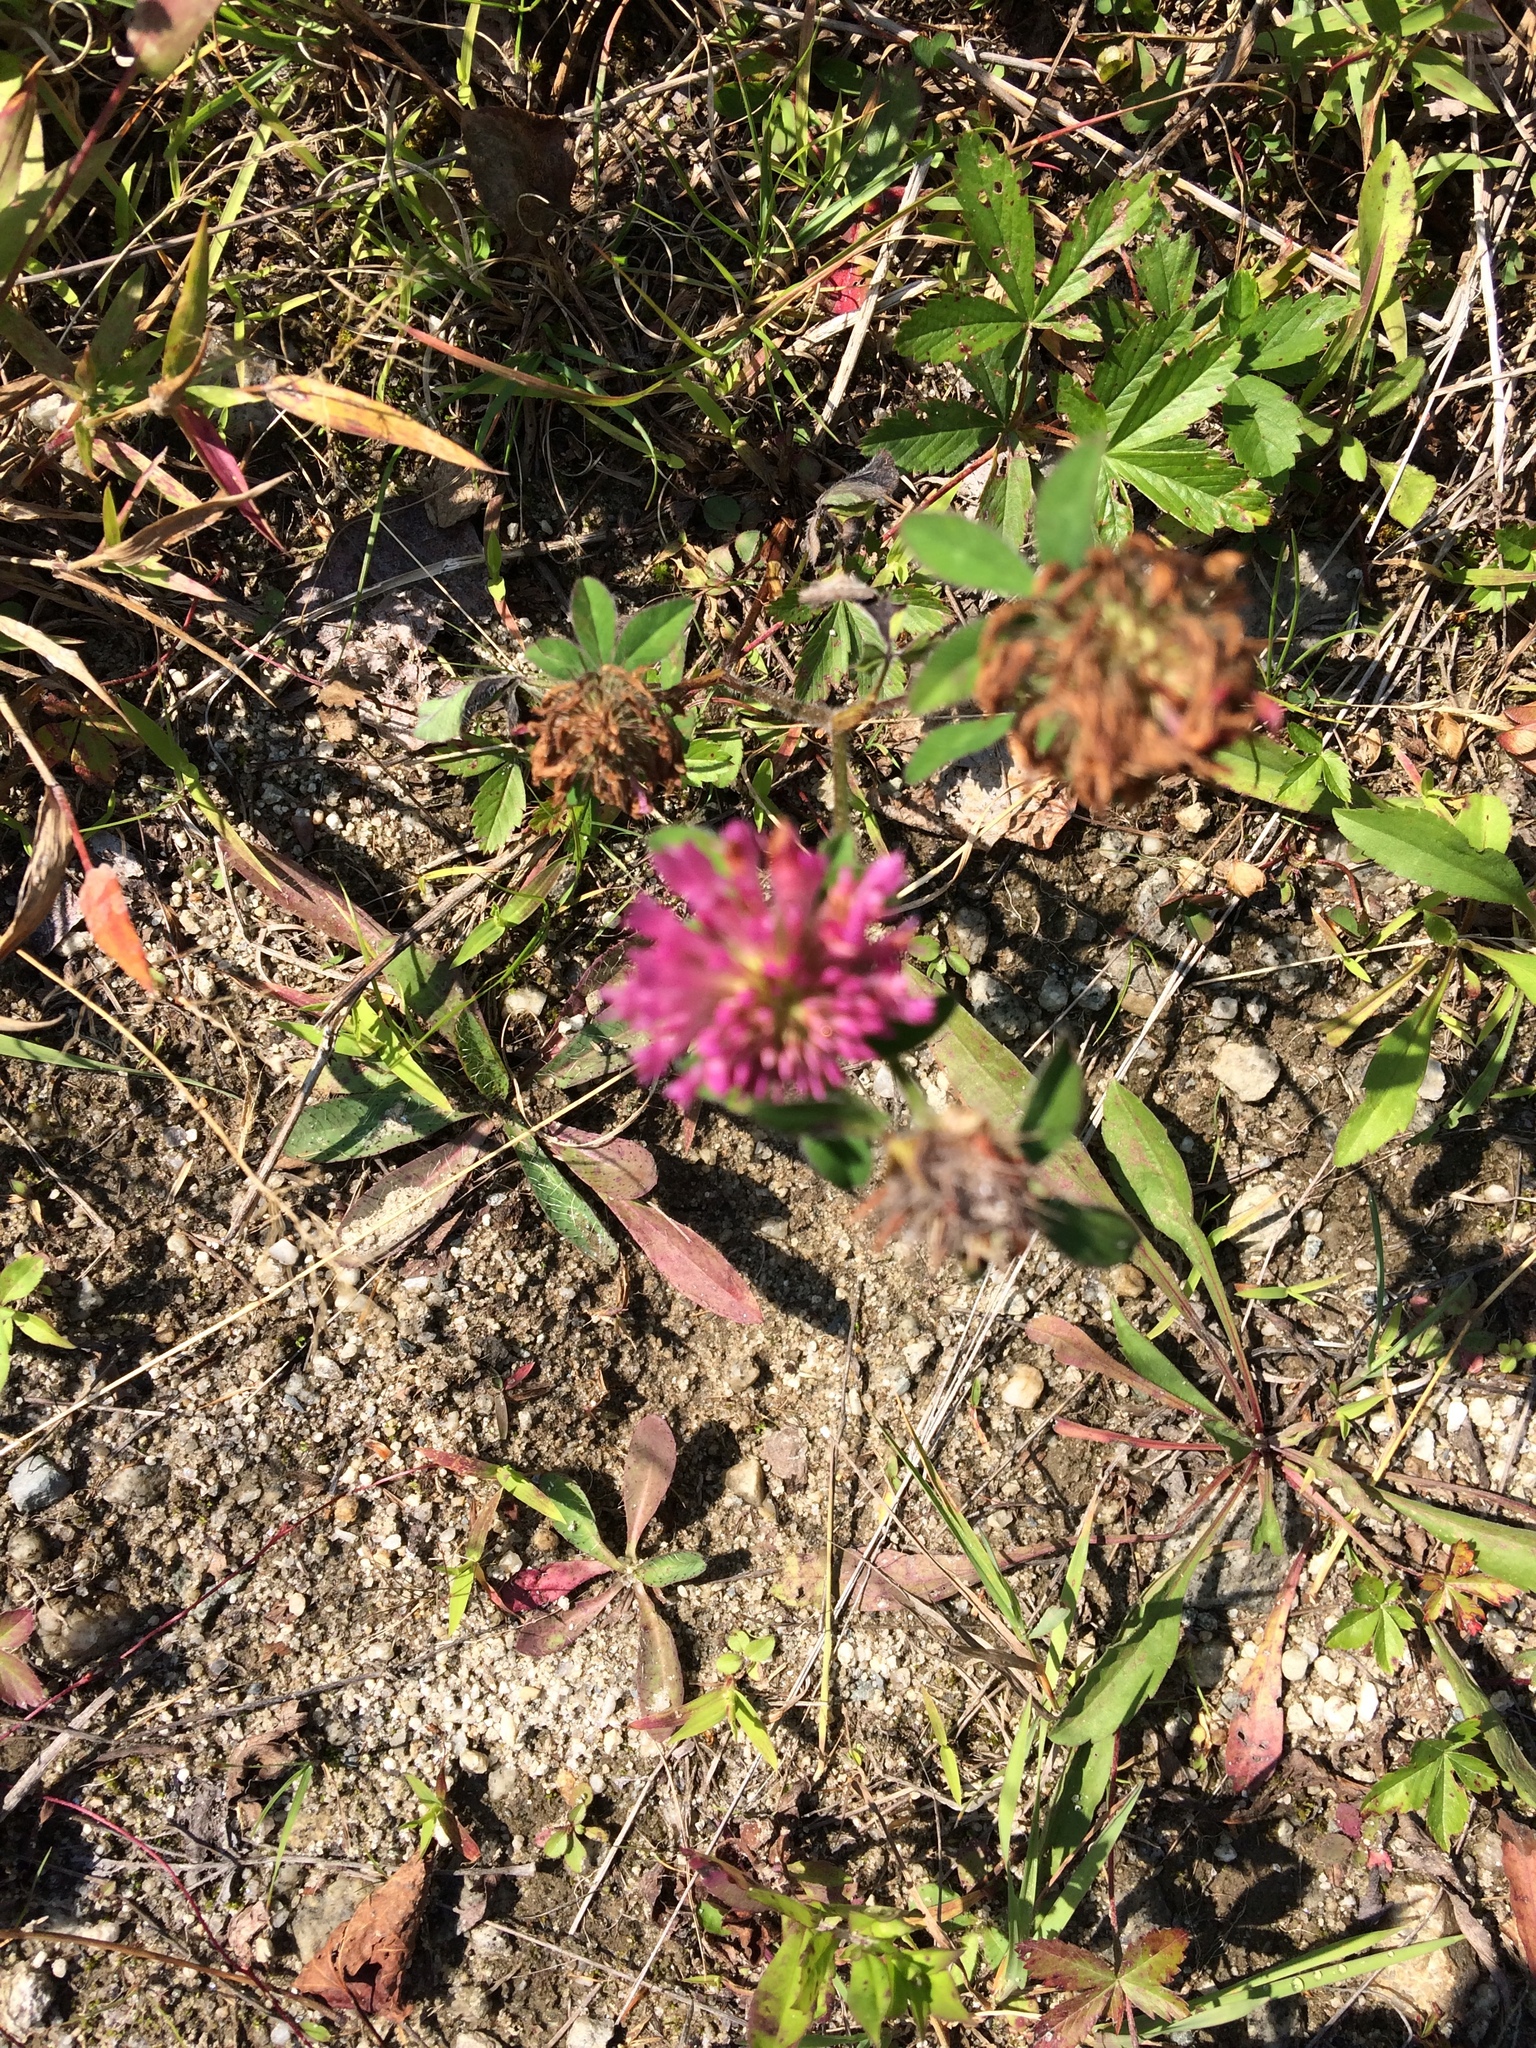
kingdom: Plantae
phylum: Tracheophyta
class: Magnoliopsida
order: Fabales
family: Fabaceae
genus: Trifolium
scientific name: Trifolium pratense
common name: Red clover
